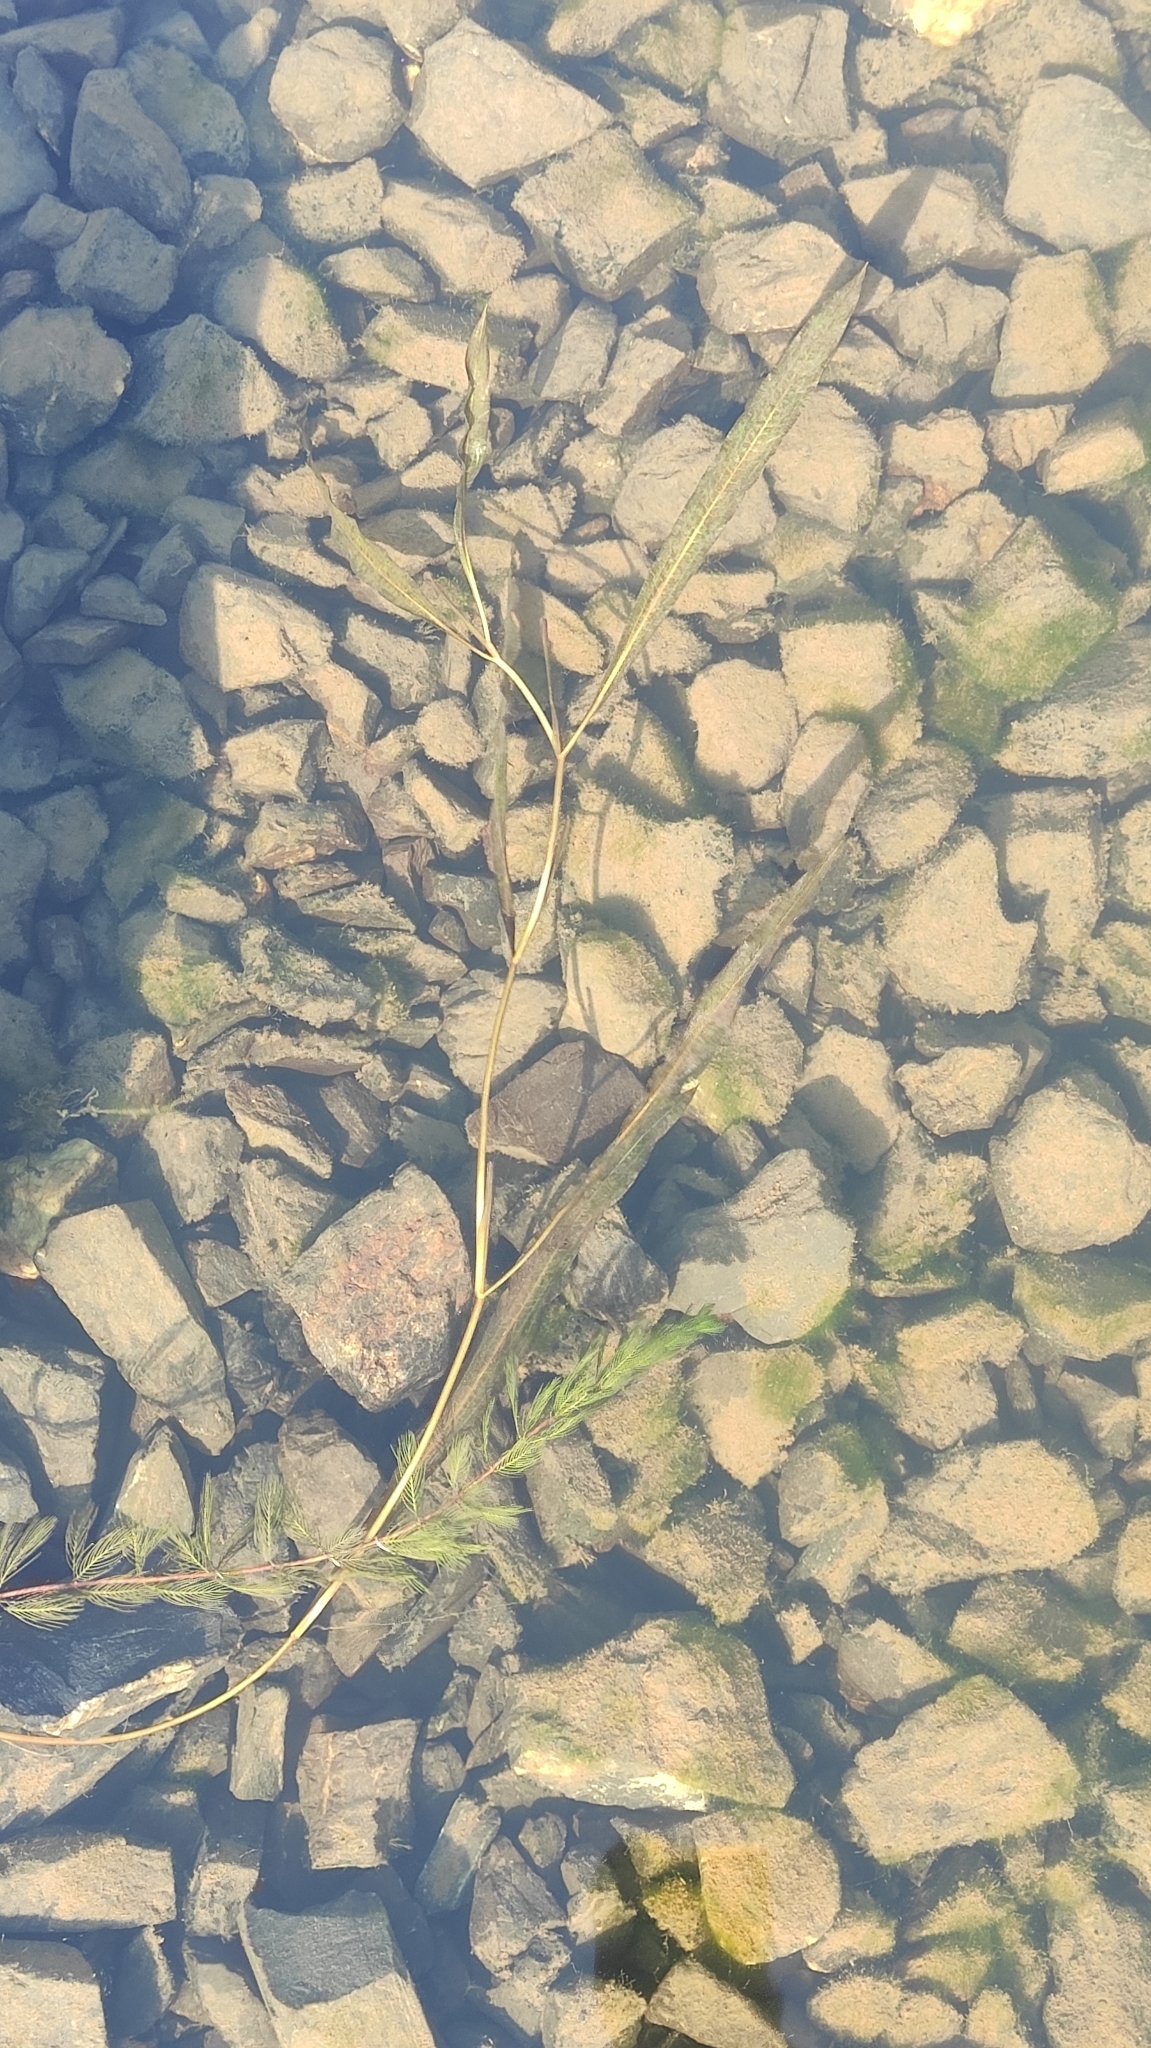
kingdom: Plantae
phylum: Tracheophyta
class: Liliopsida
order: Alismatales
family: Potamogetonaceae
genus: Potamogeton
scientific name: Potamogeton lucens
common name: Shining pondweed
